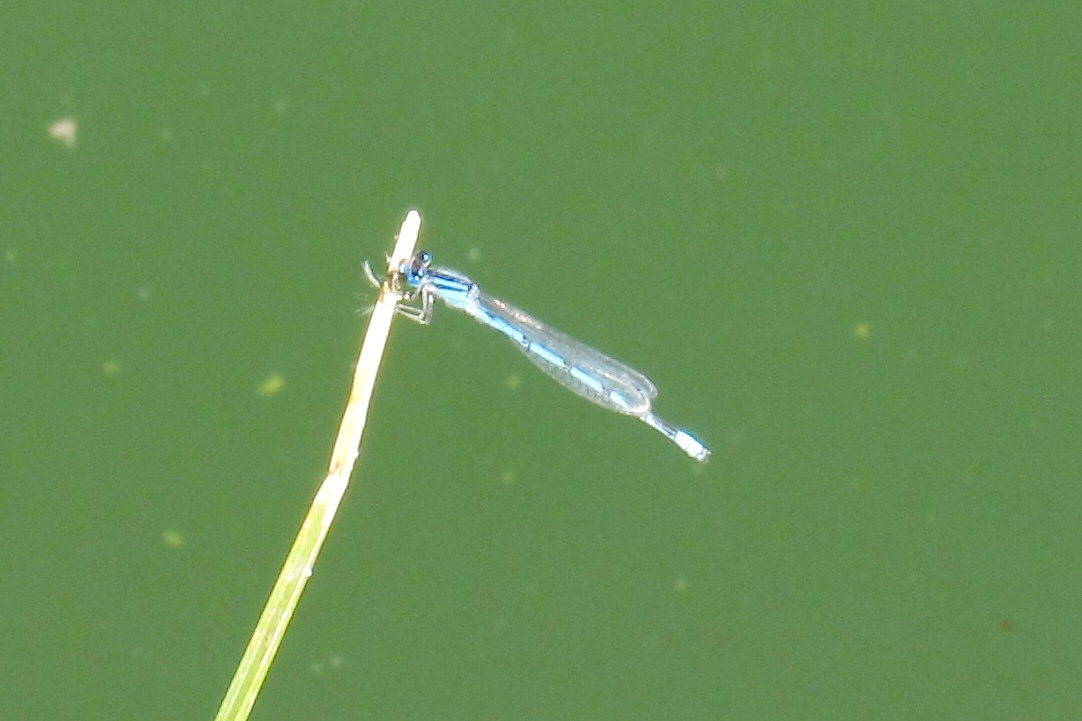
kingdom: Animalia
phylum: Arthropoda
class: Insecta
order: Odonata
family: Coenagrionidae
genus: Enallagma
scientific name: Enallagma civile
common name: Damselfly
